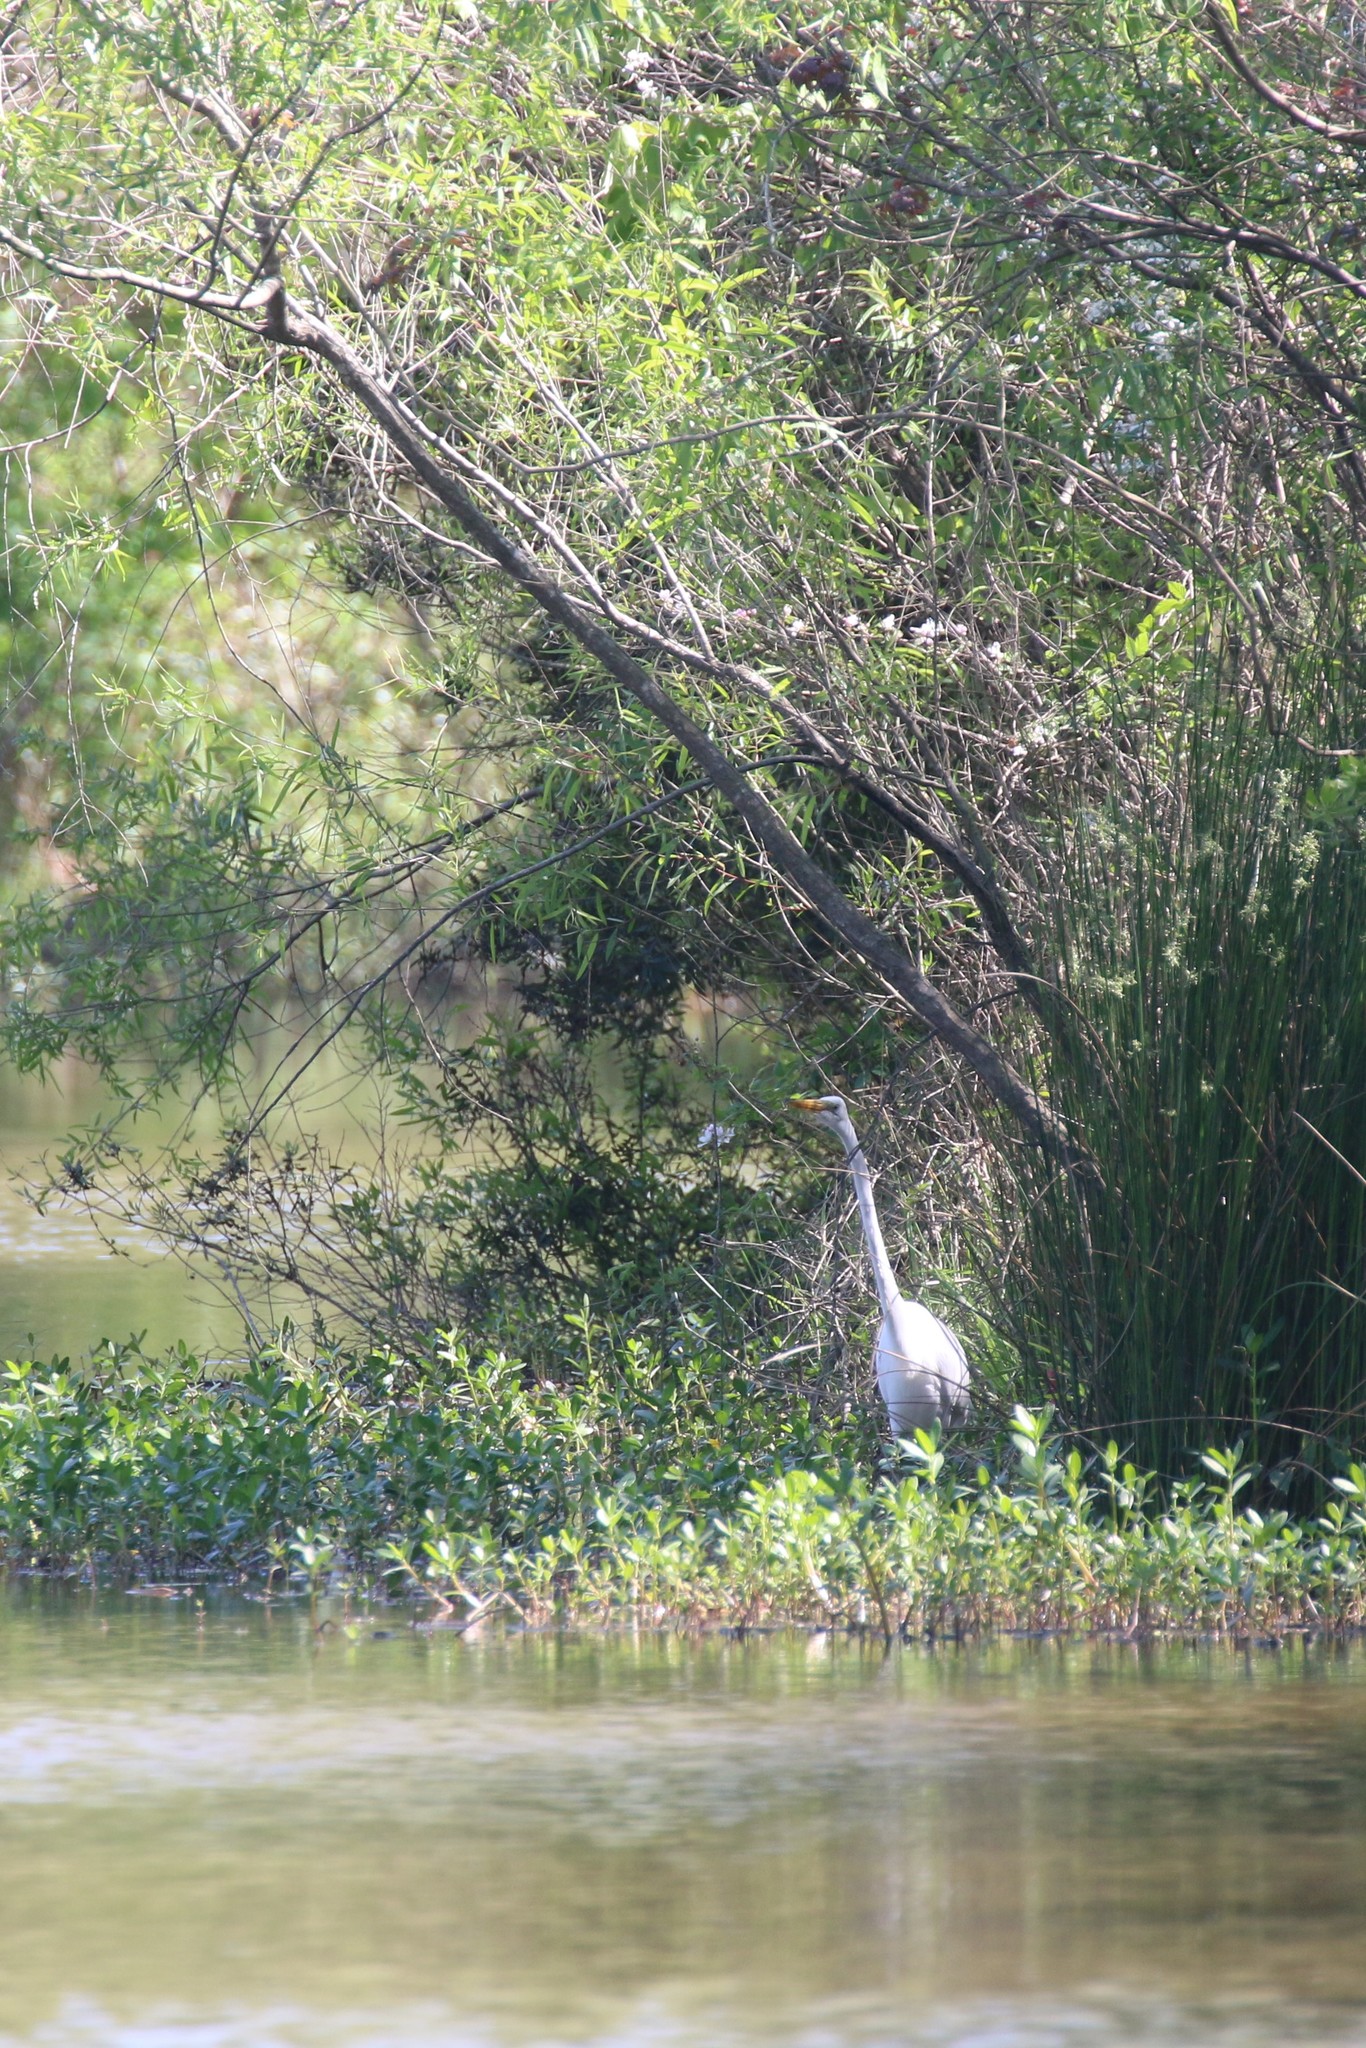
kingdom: Animalia
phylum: Chordata
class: Aves
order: Pelecaniformes
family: Ardeidae
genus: Ardea
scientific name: Ardea alba
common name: Great egret
